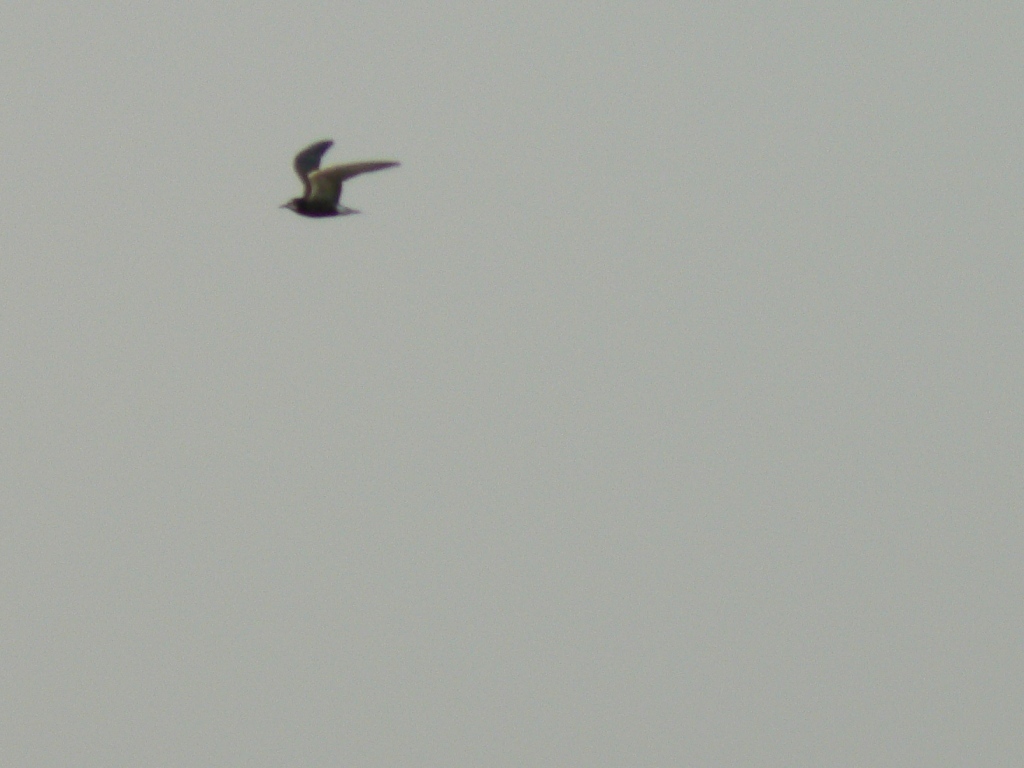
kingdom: Animalia
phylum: Chordata
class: Aves
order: Charadriiformes
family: Laridae
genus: Chlidonias
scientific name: Chlidonias niger
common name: Black tern
